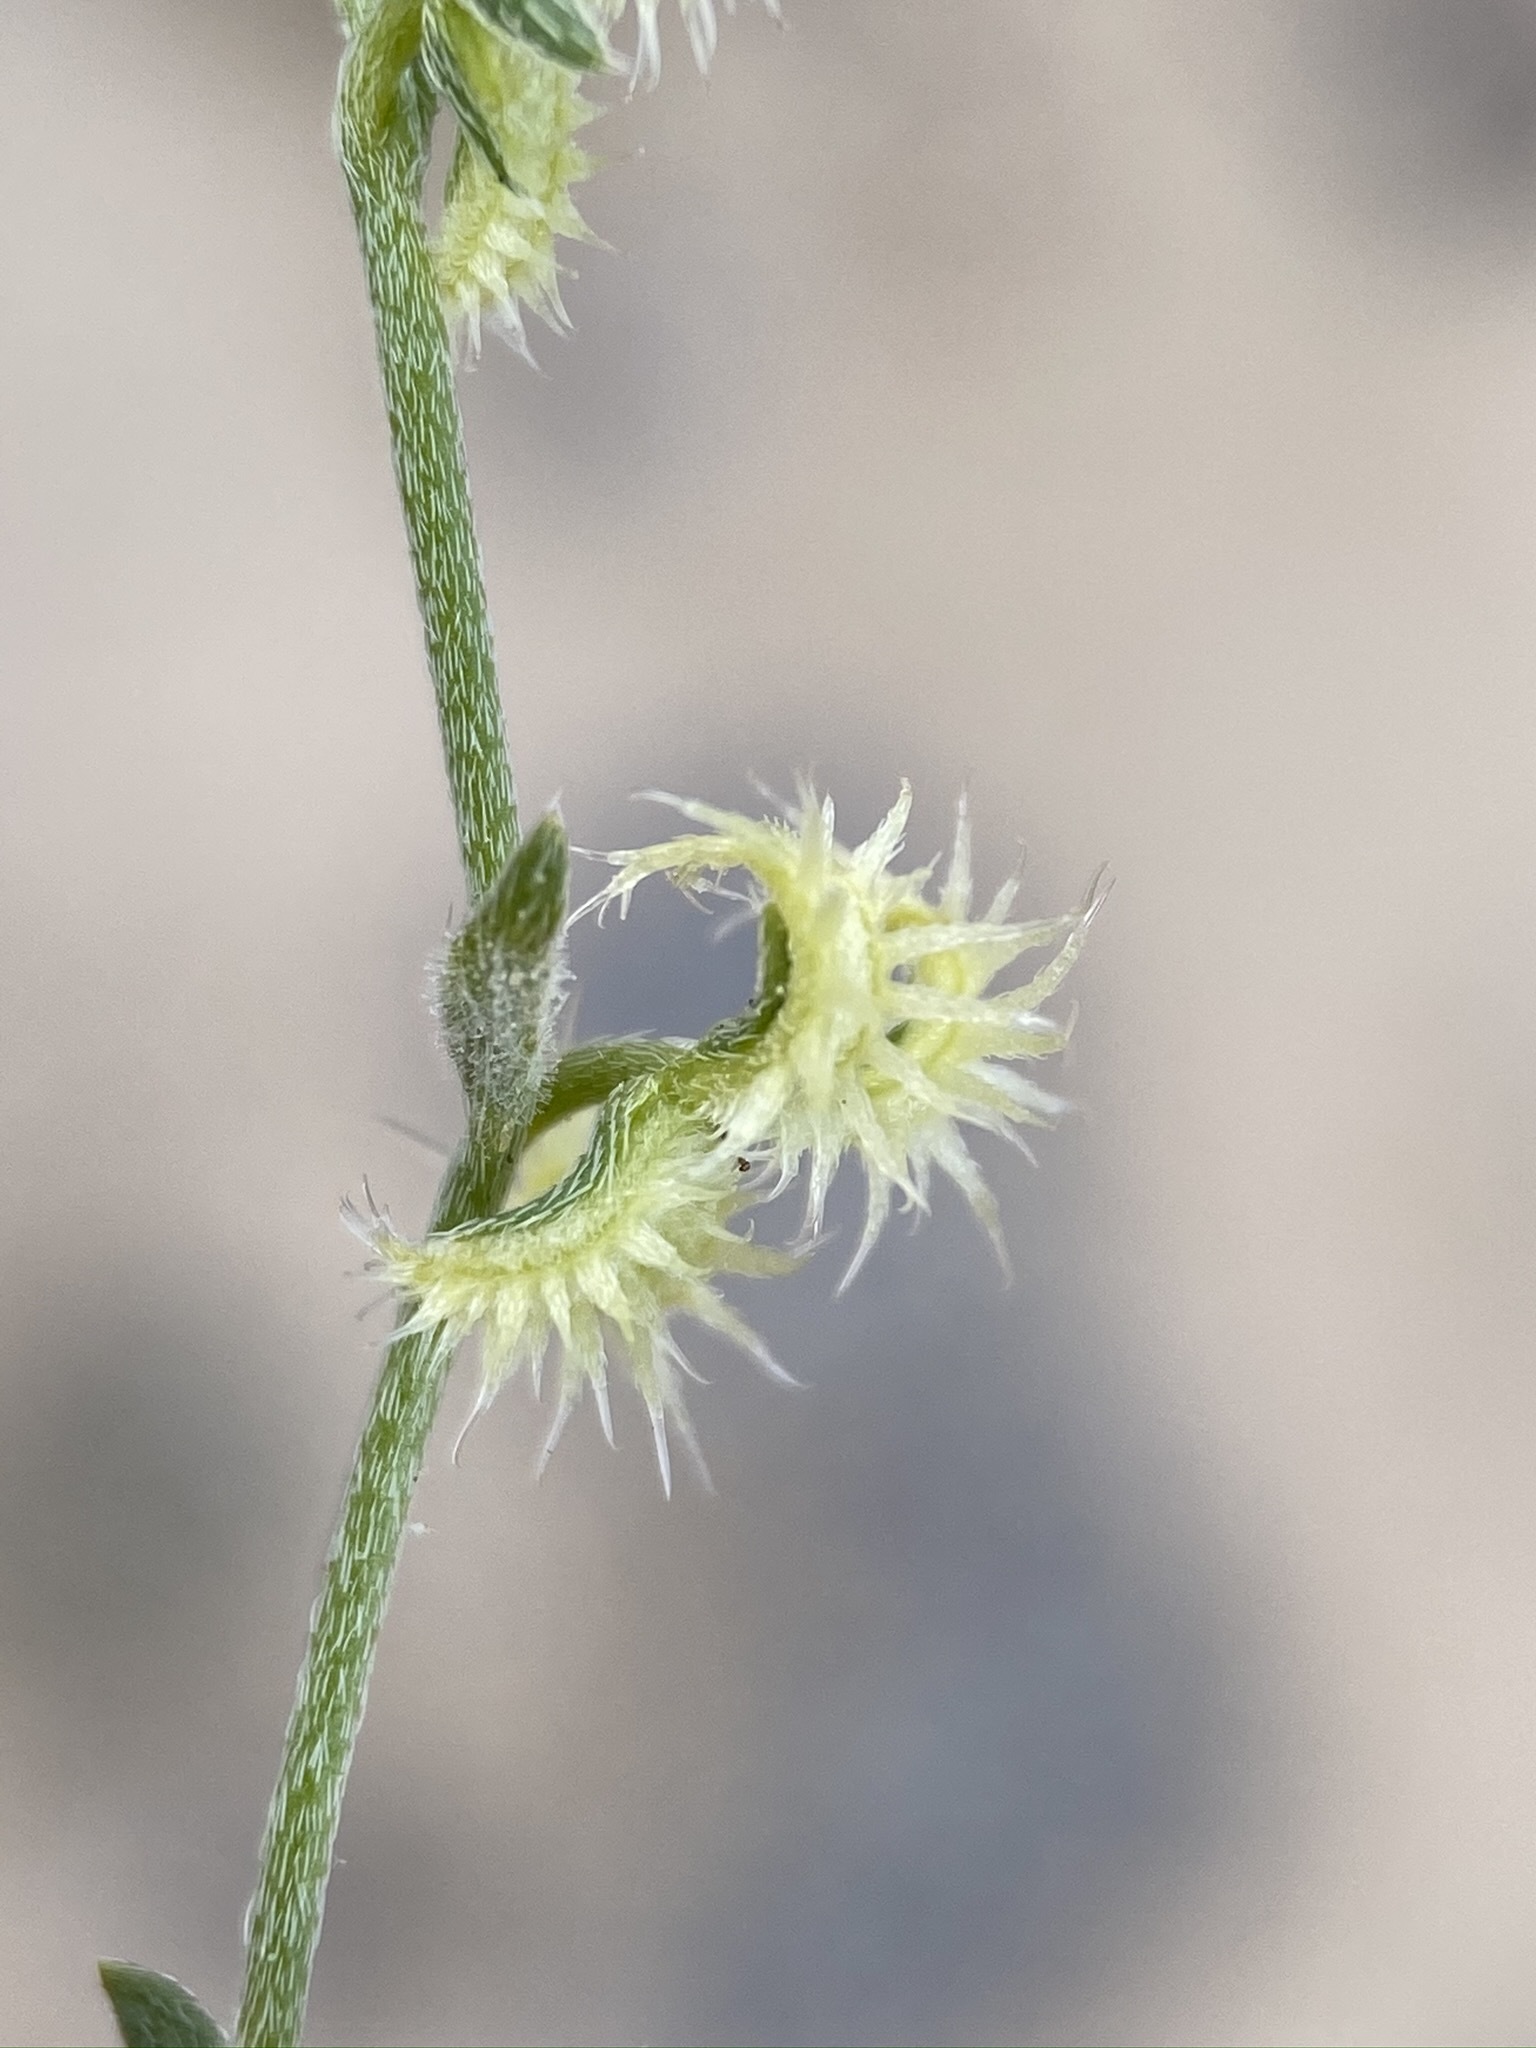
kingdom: Plantae
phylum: Tracheophyta
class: Magnoliopsida
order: Boraginales
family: Boraginaceae
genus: Pectocarya
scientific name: Pectocarya recurvata
